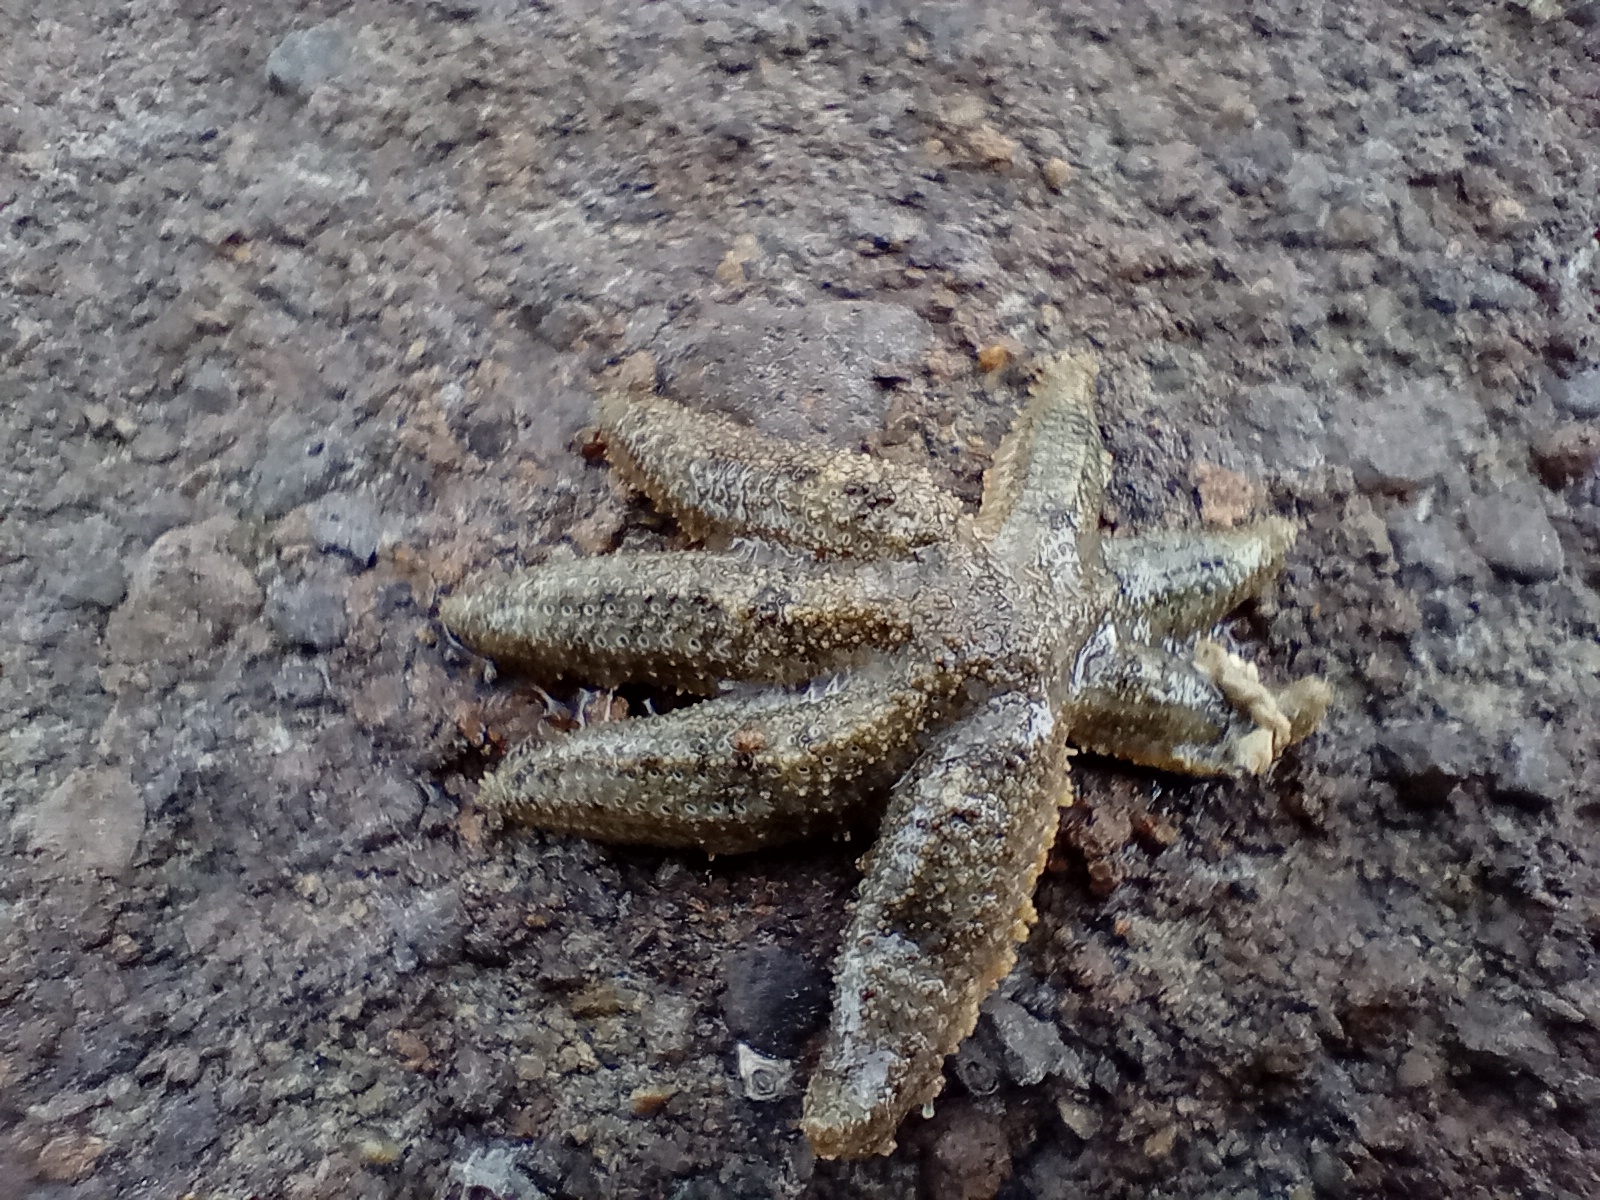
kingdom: Animalia
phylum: Echinodermata
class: Asteroidea
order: Forcipulatida
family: Stichasteridae
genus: Allostichaster
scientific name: Allostichaster polyplax
